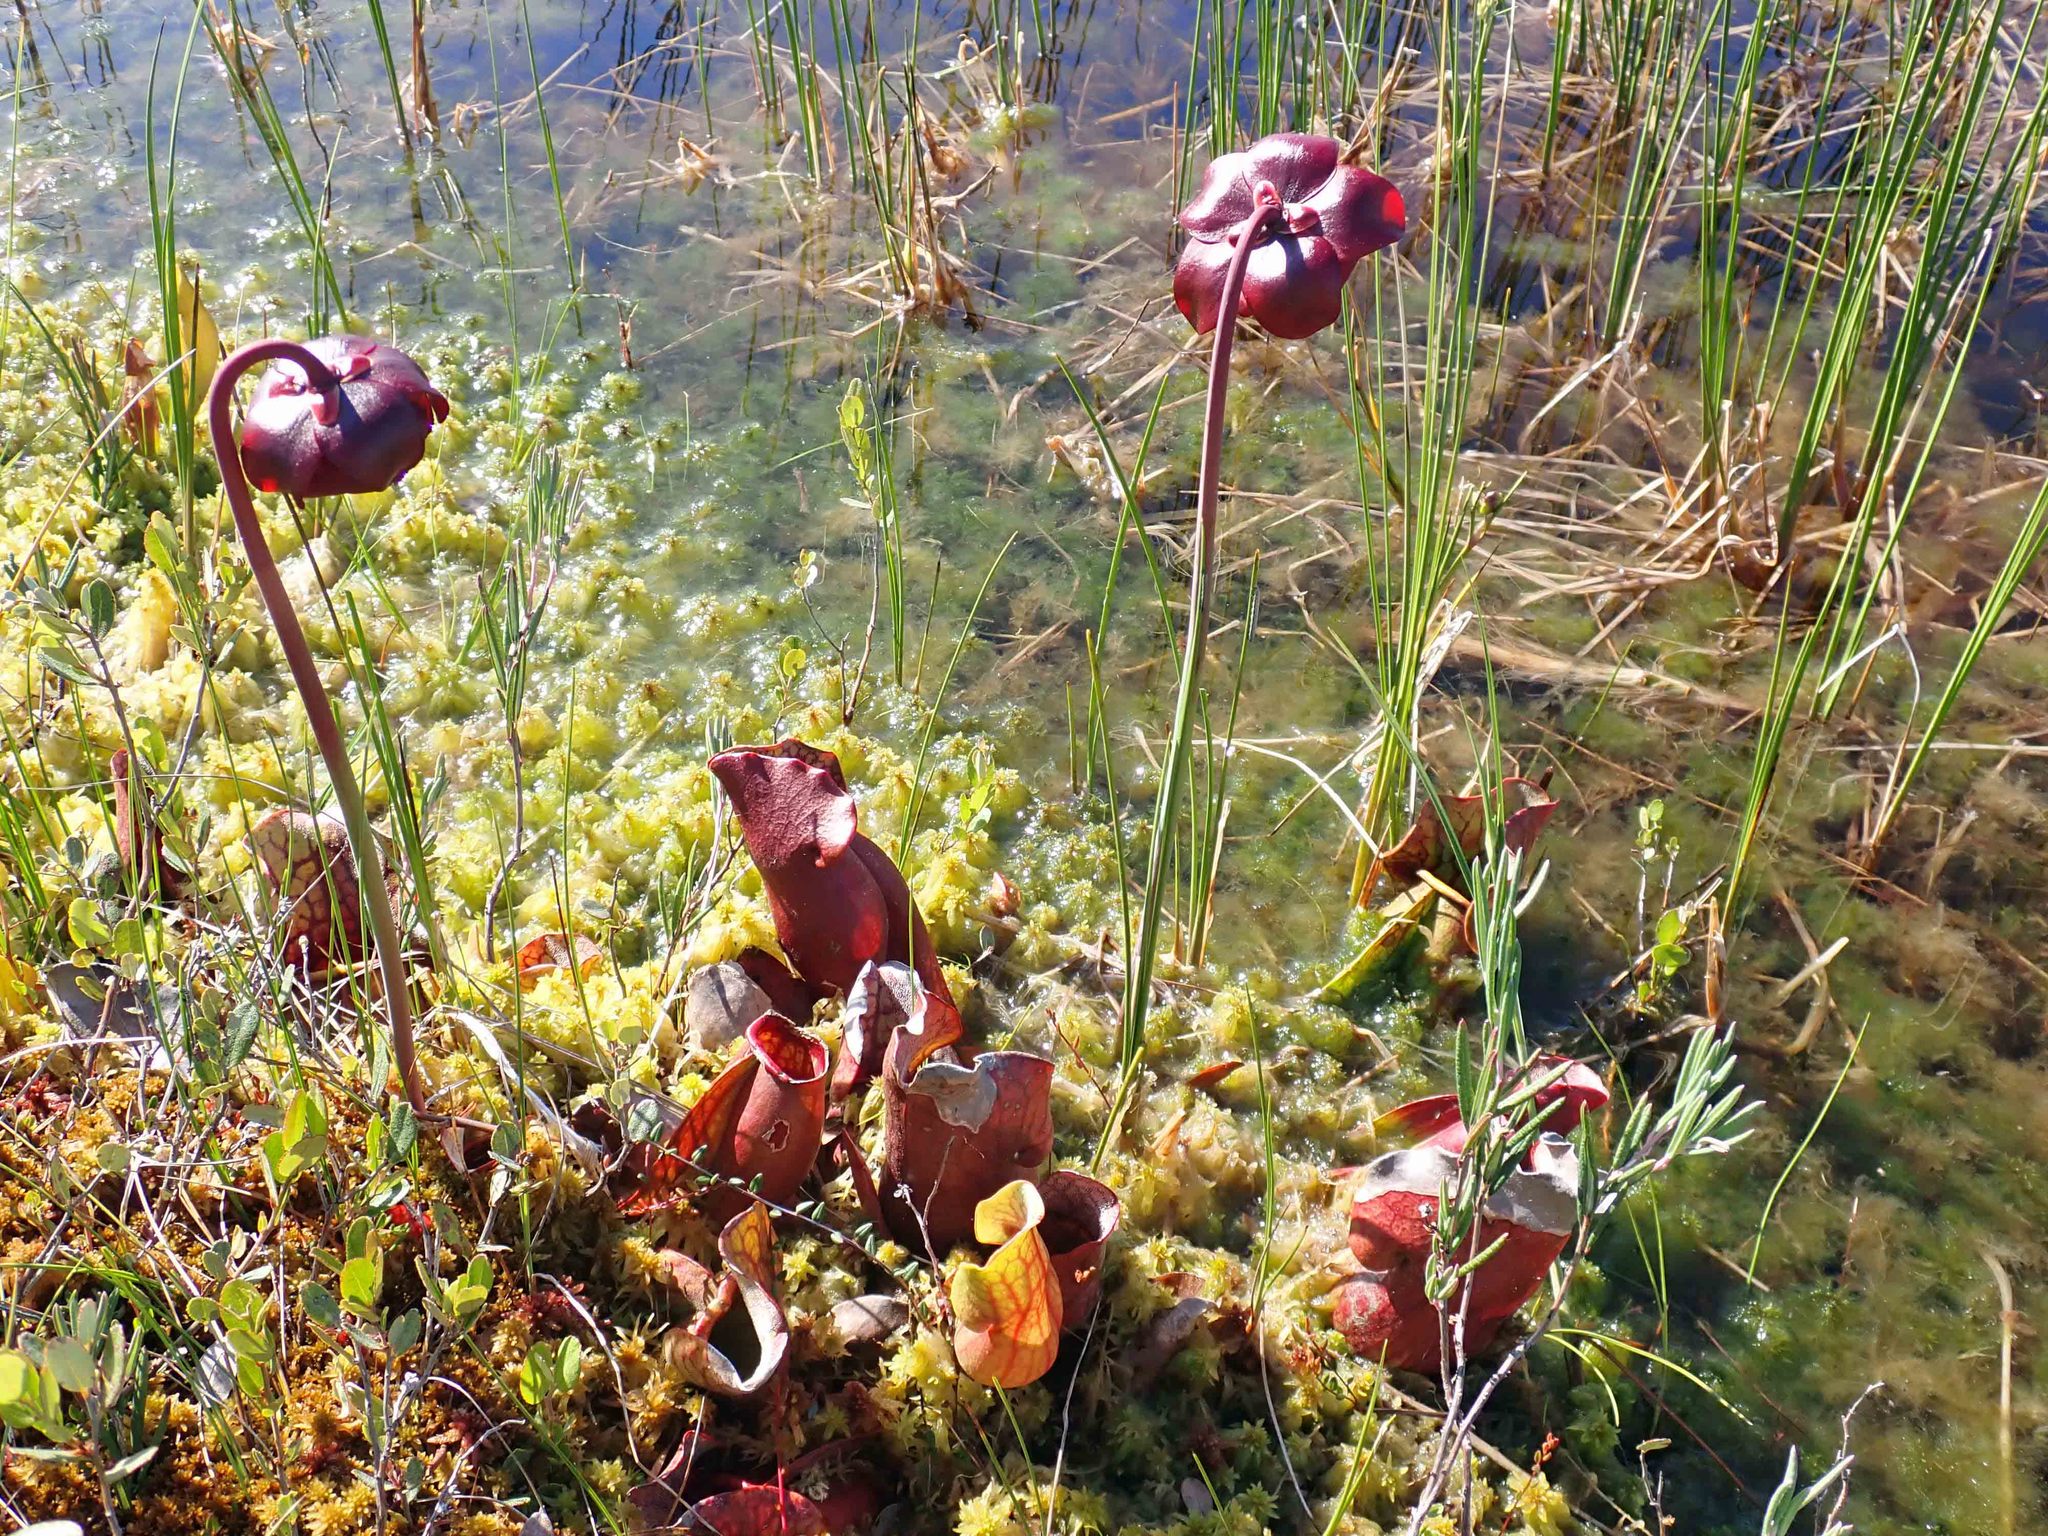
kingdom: Plantae
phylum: Tracheophyta
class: Magnoliopsida
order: Ericales
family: Sarraceniaceae
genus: Sarracenia
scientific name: Sarracenia purpurea
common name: Pitcherplant
